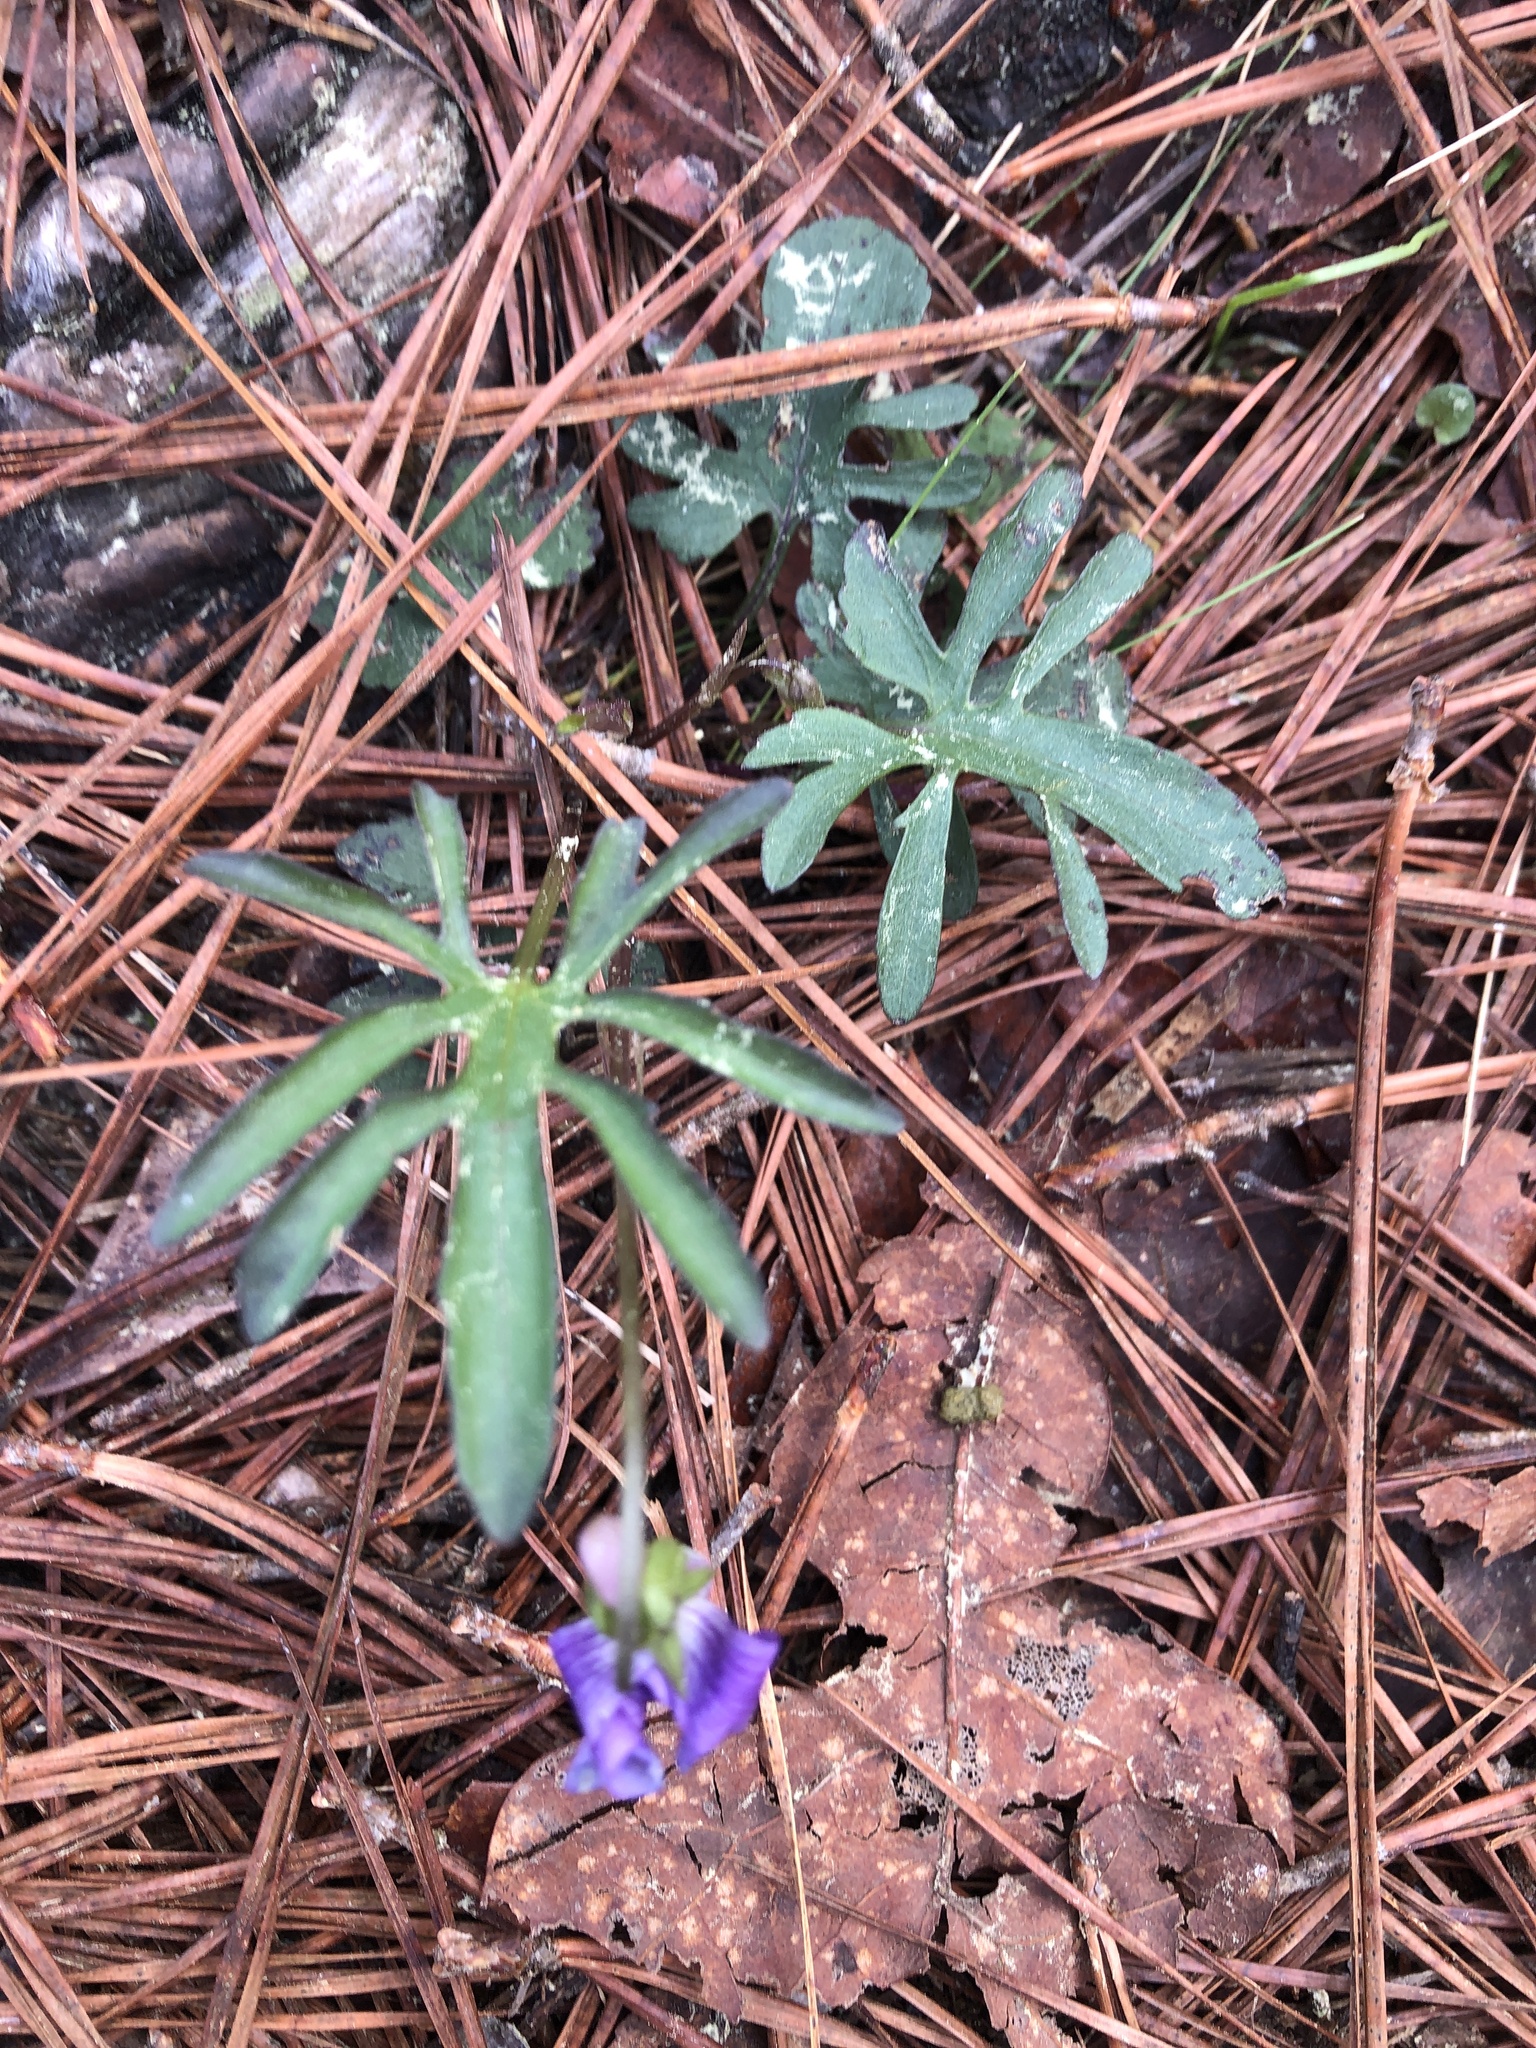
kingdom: Plantae
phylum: Tracheophyta
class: Magnoliopsida
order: Malpighiales
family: Violaceae
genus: Viola
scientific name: Viola septemloba
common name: Southern coast violet
